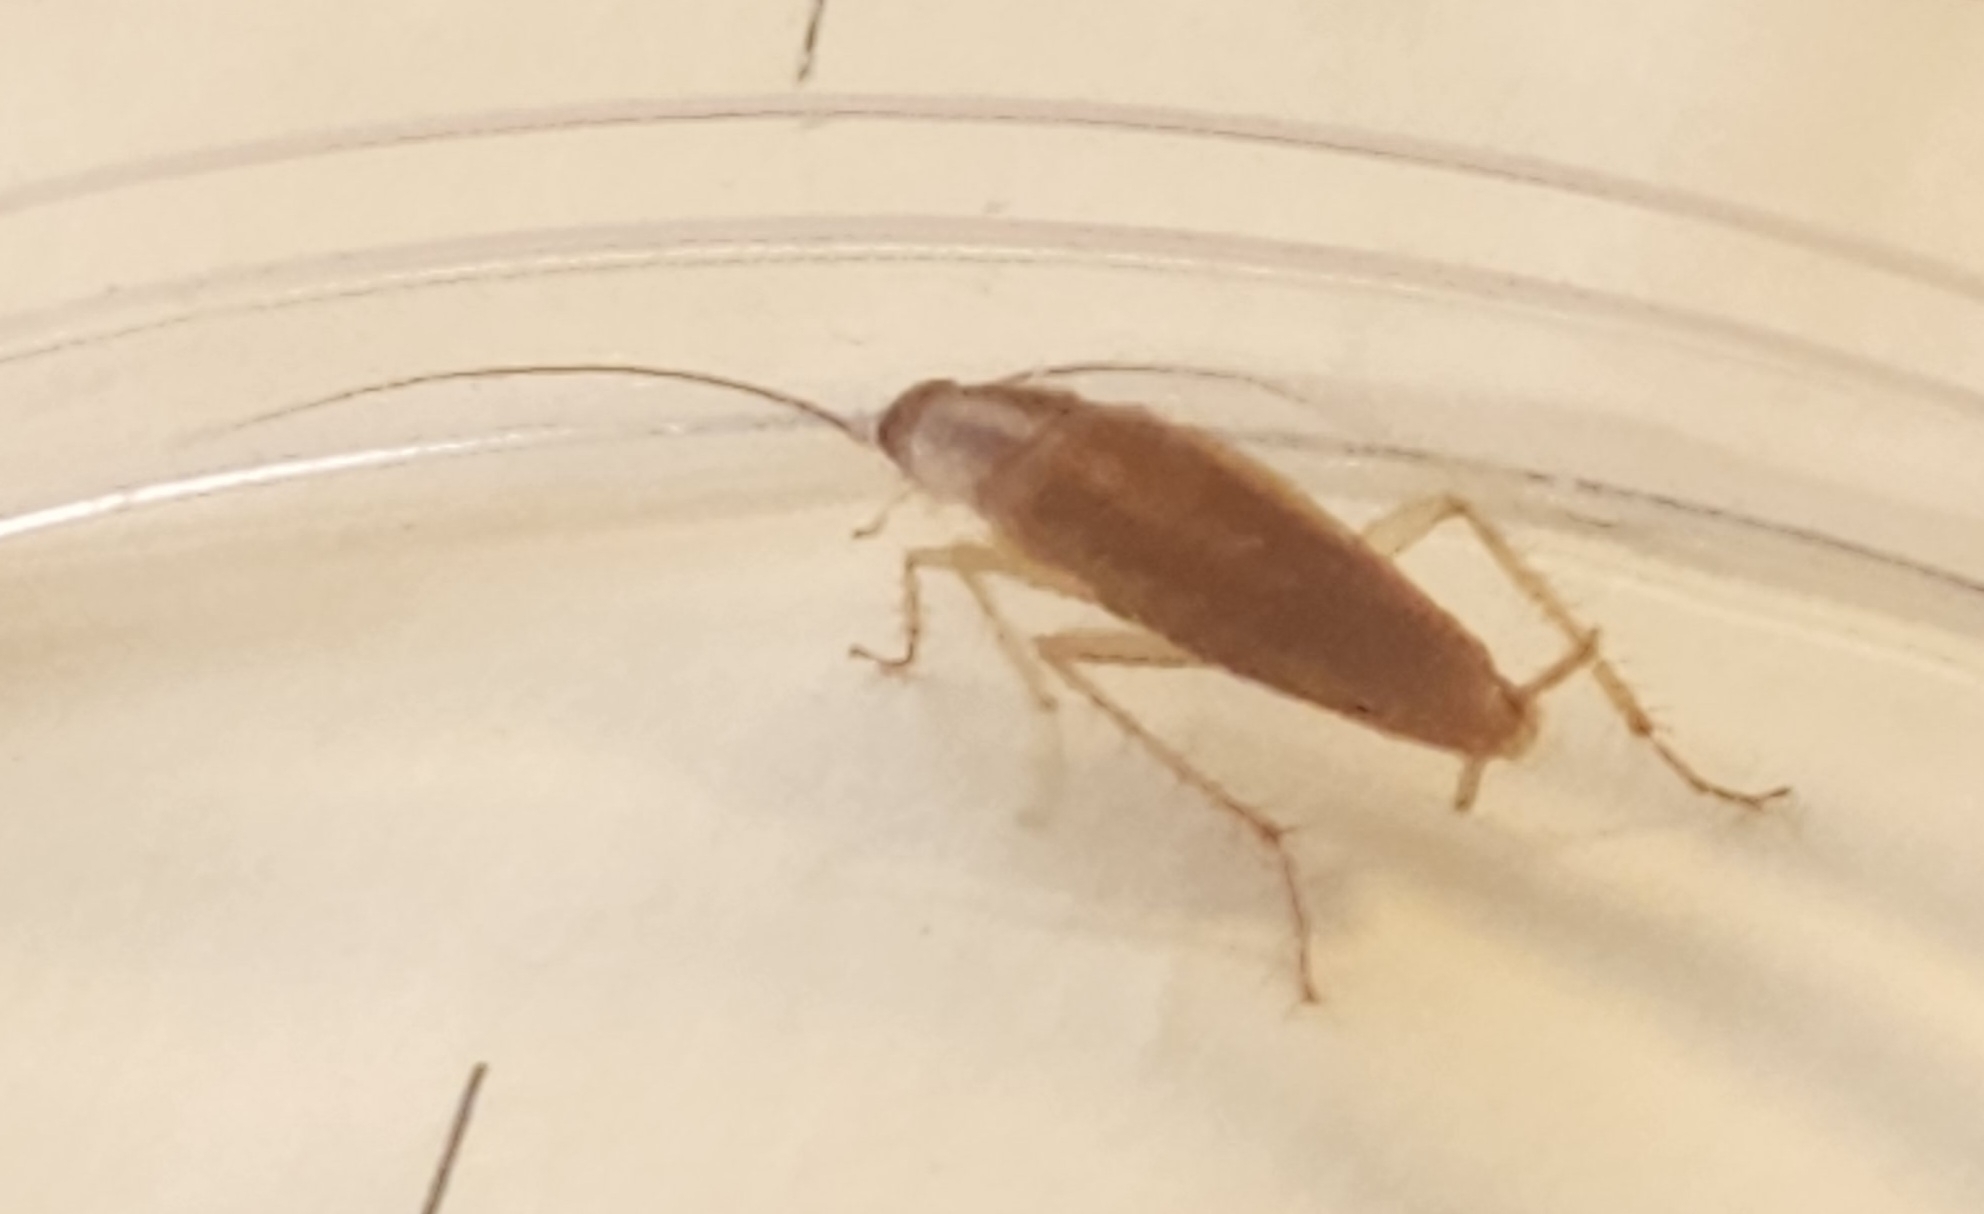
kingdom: Animalia
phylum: Arthropoda
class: Insecta
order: Blattodea
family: Ectobiidae
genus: Blattella
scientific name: Blattella germanica
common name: German cockroach
